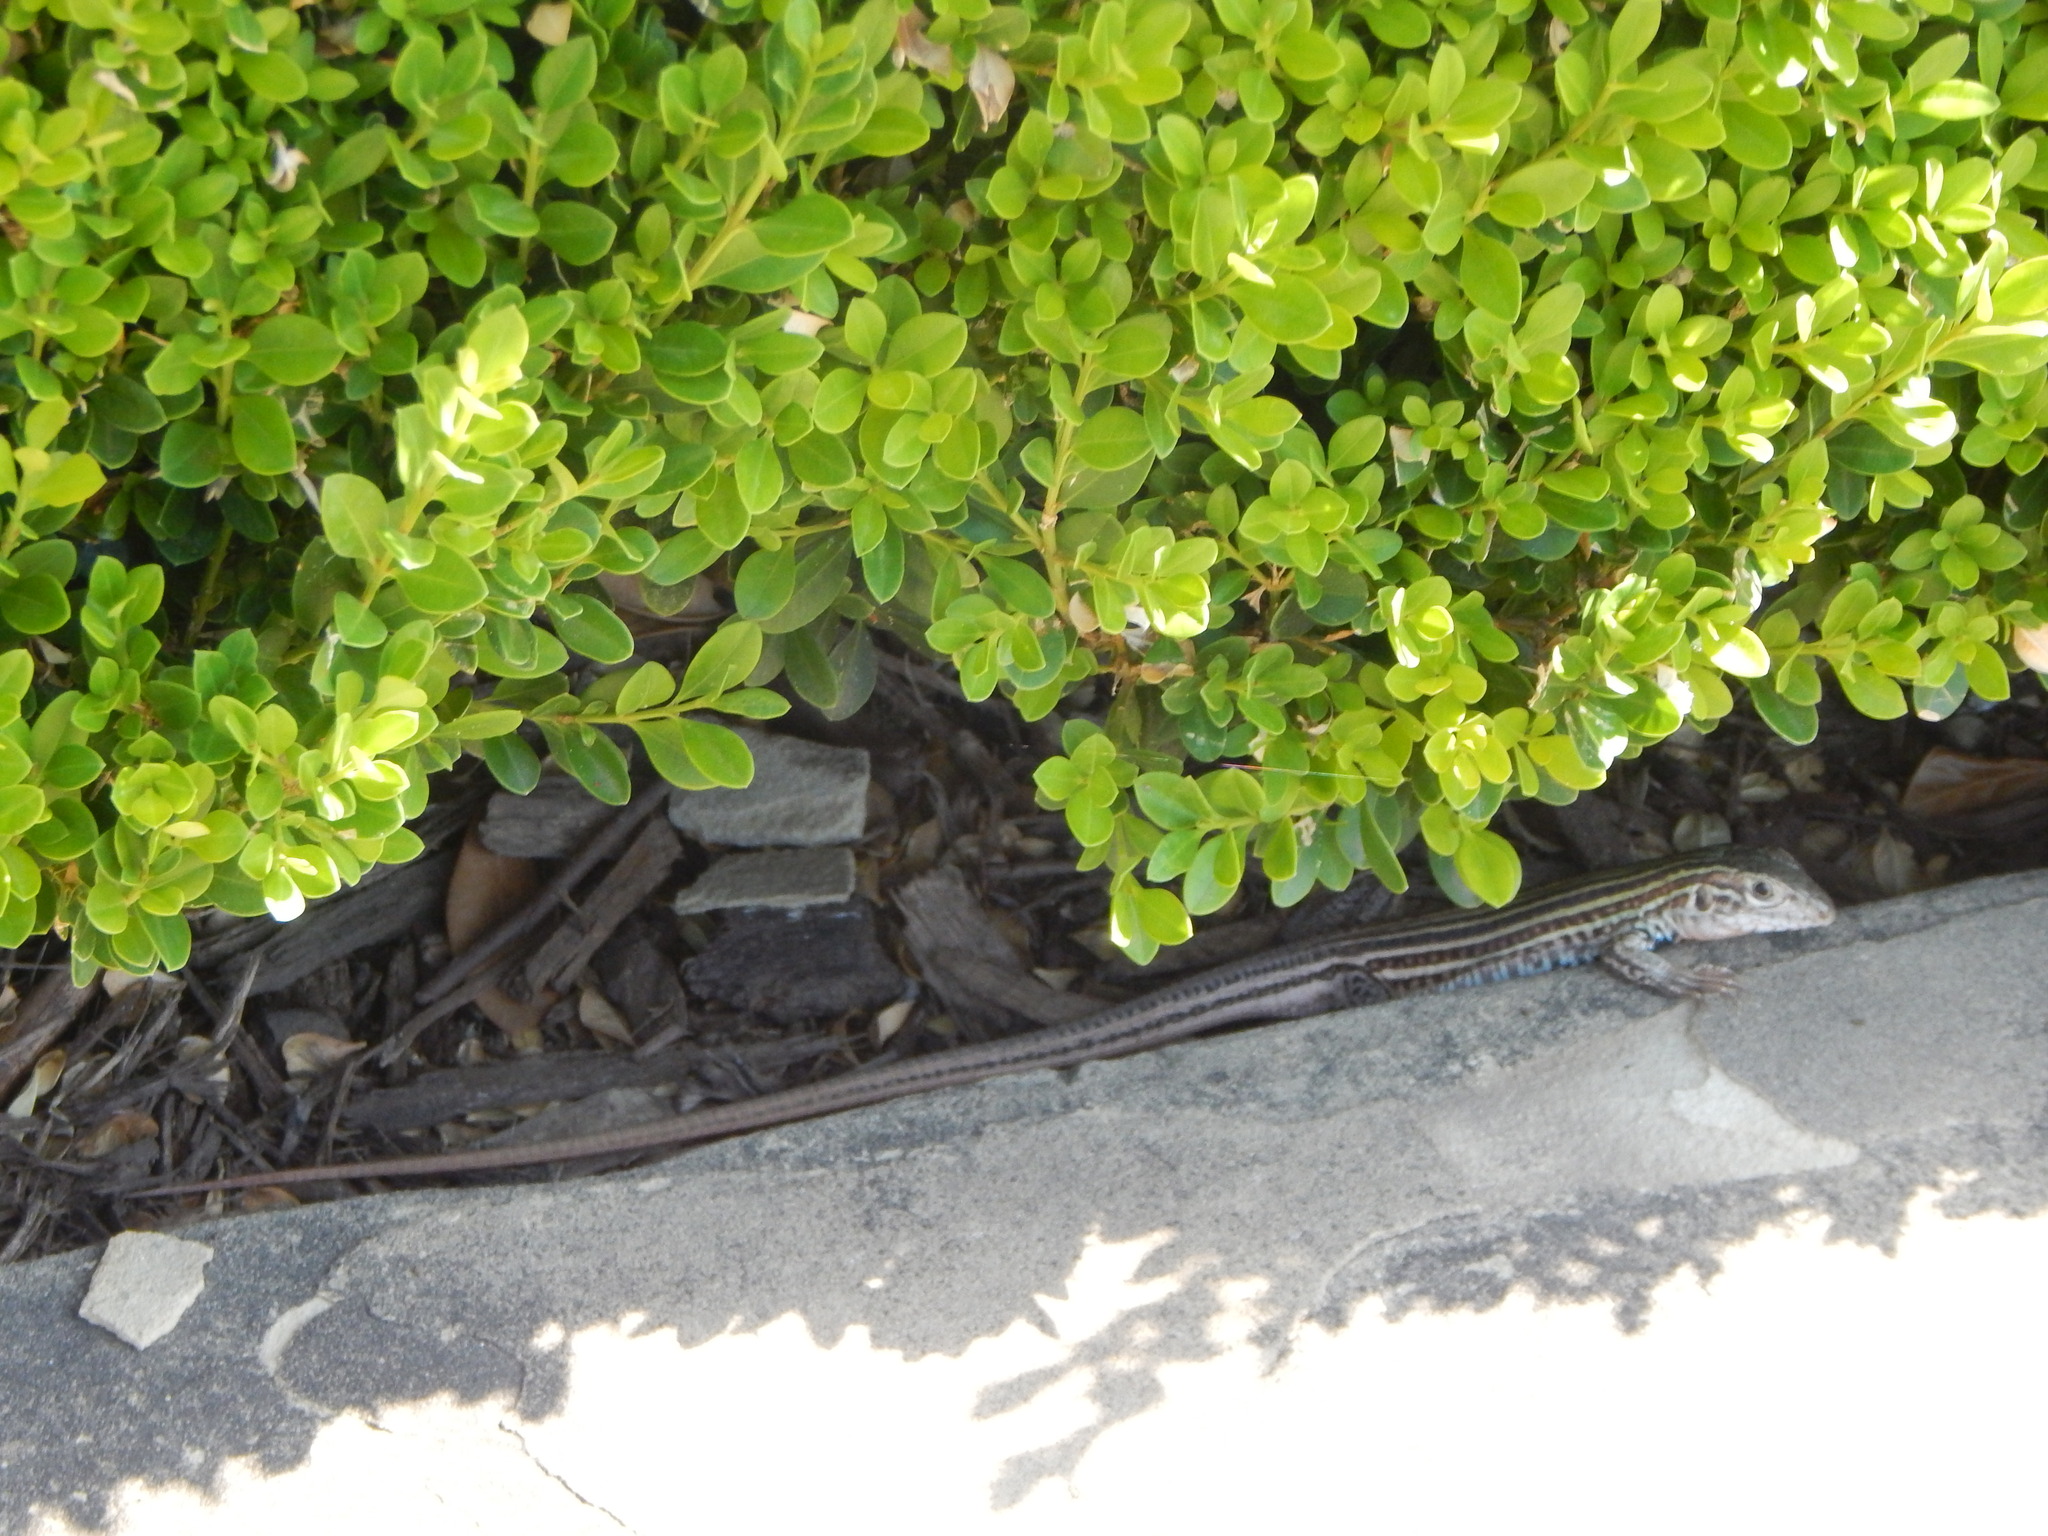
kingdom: Animalia
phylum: Chordata
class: Squamata
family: Teiidae
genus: Aspidoscelis
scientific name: Aspidoscelis gularis
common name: Eastern spotted whiptail
